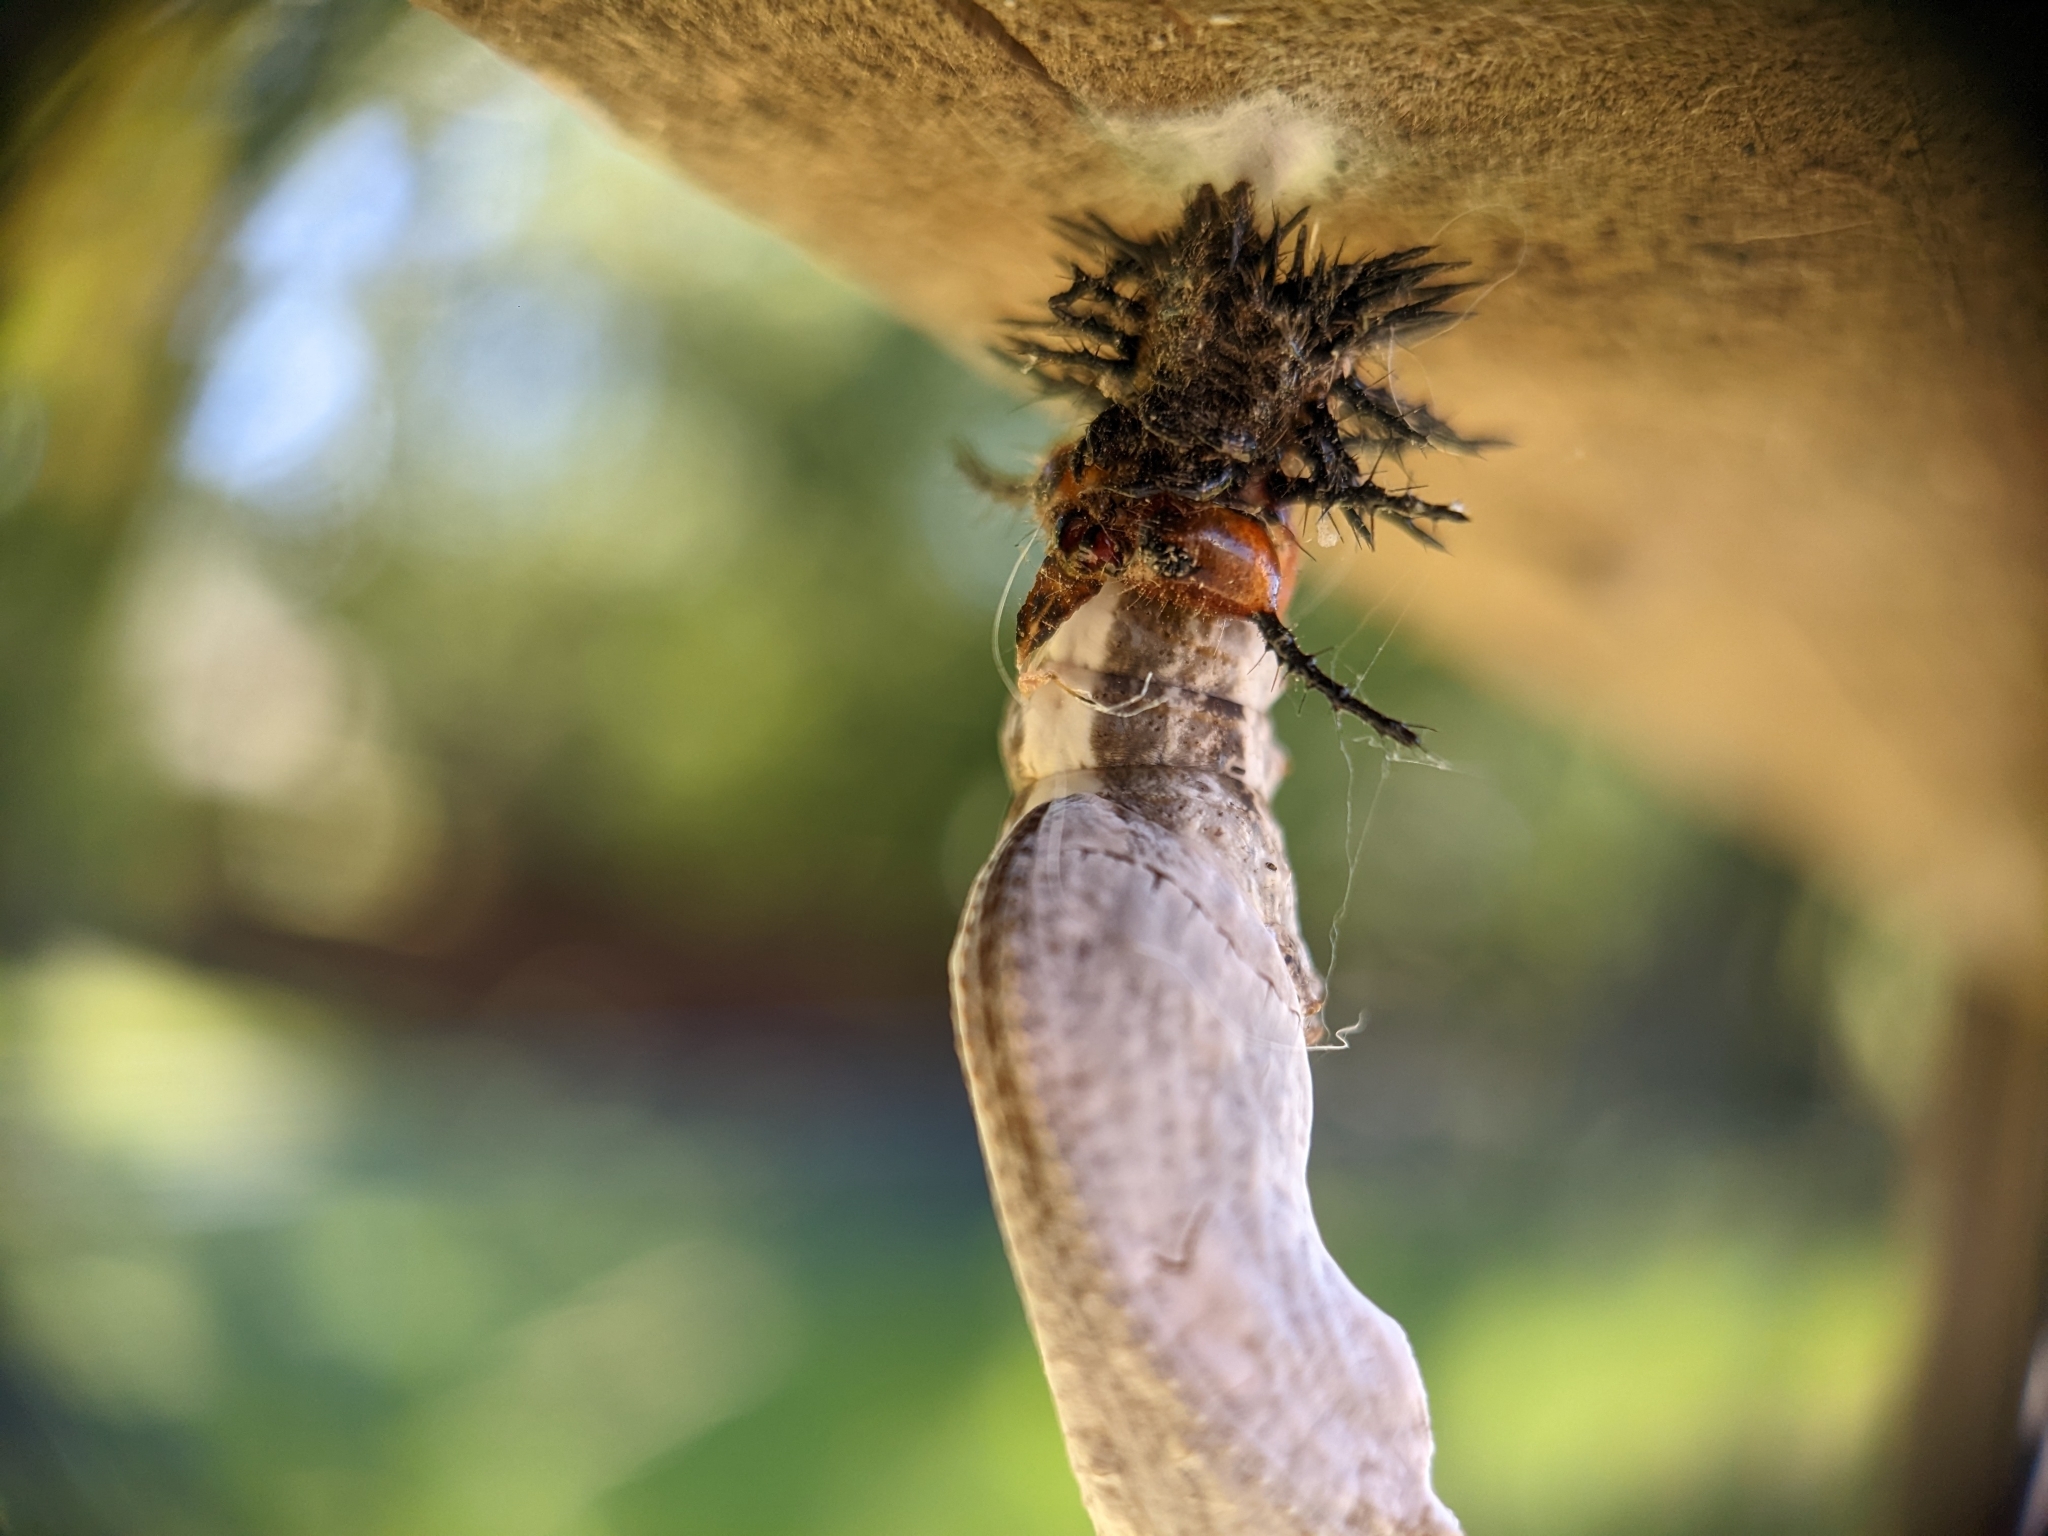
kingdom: Animalia
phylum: Arthropoda
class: Insecta
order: Lepidoptera
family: Nymphalidae
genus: Dione
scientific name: Dione vanillae
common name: Gulf fritillary
